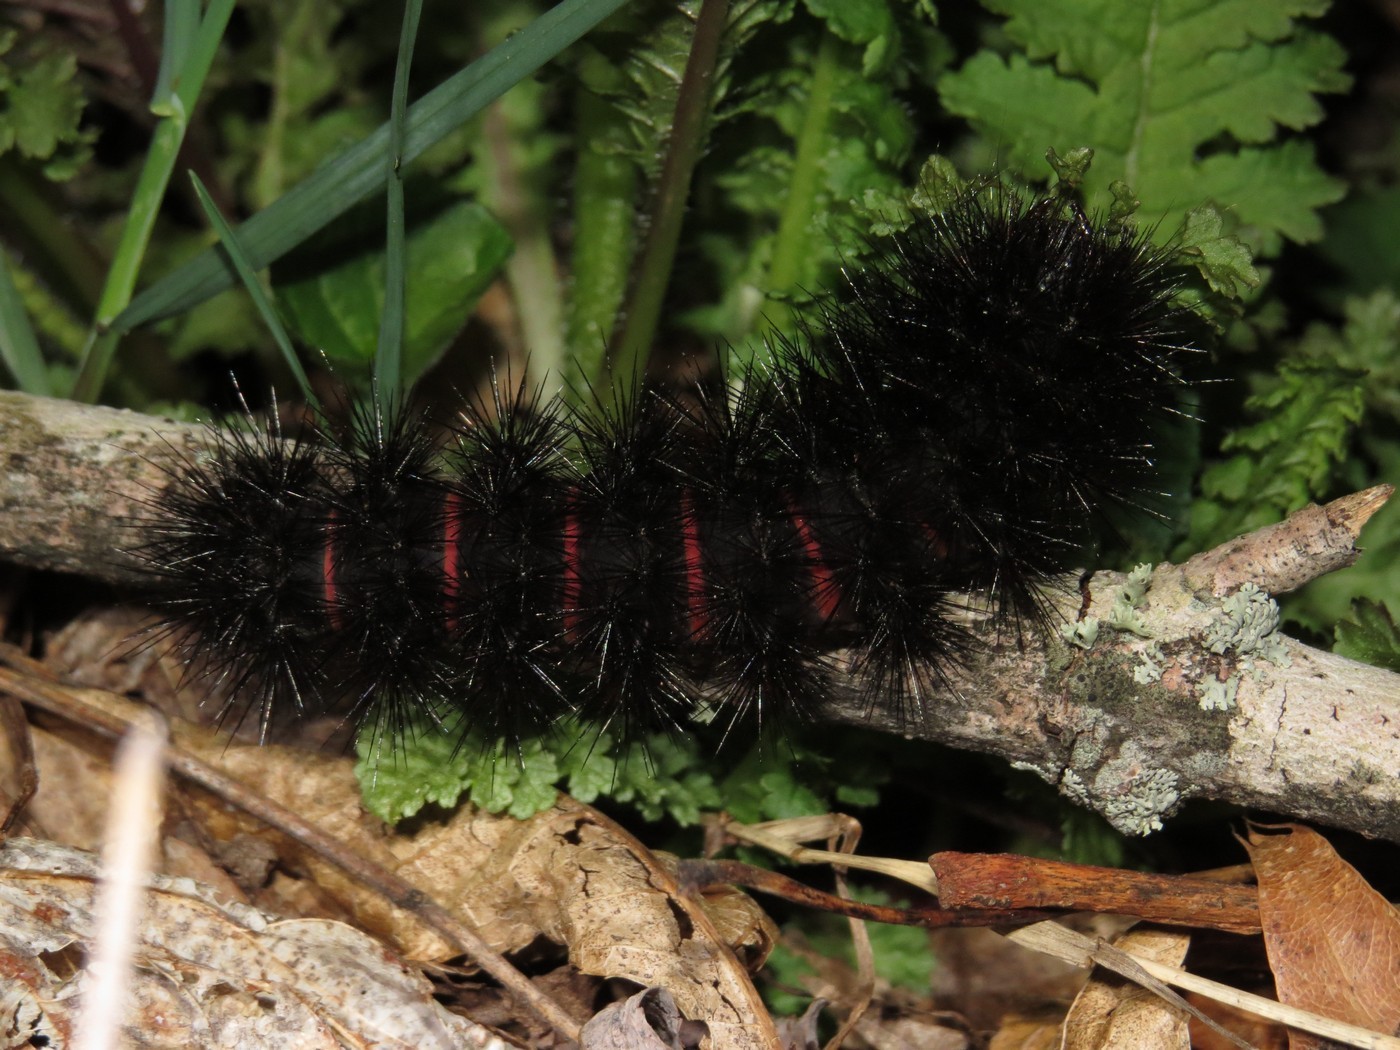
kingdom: Animalia
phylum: Arthropoda
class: Insecta
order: Lepidoptera
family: Erebidae
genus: Hypercompe
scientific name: Hypercompe scribonia
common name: Giant leopard moth
